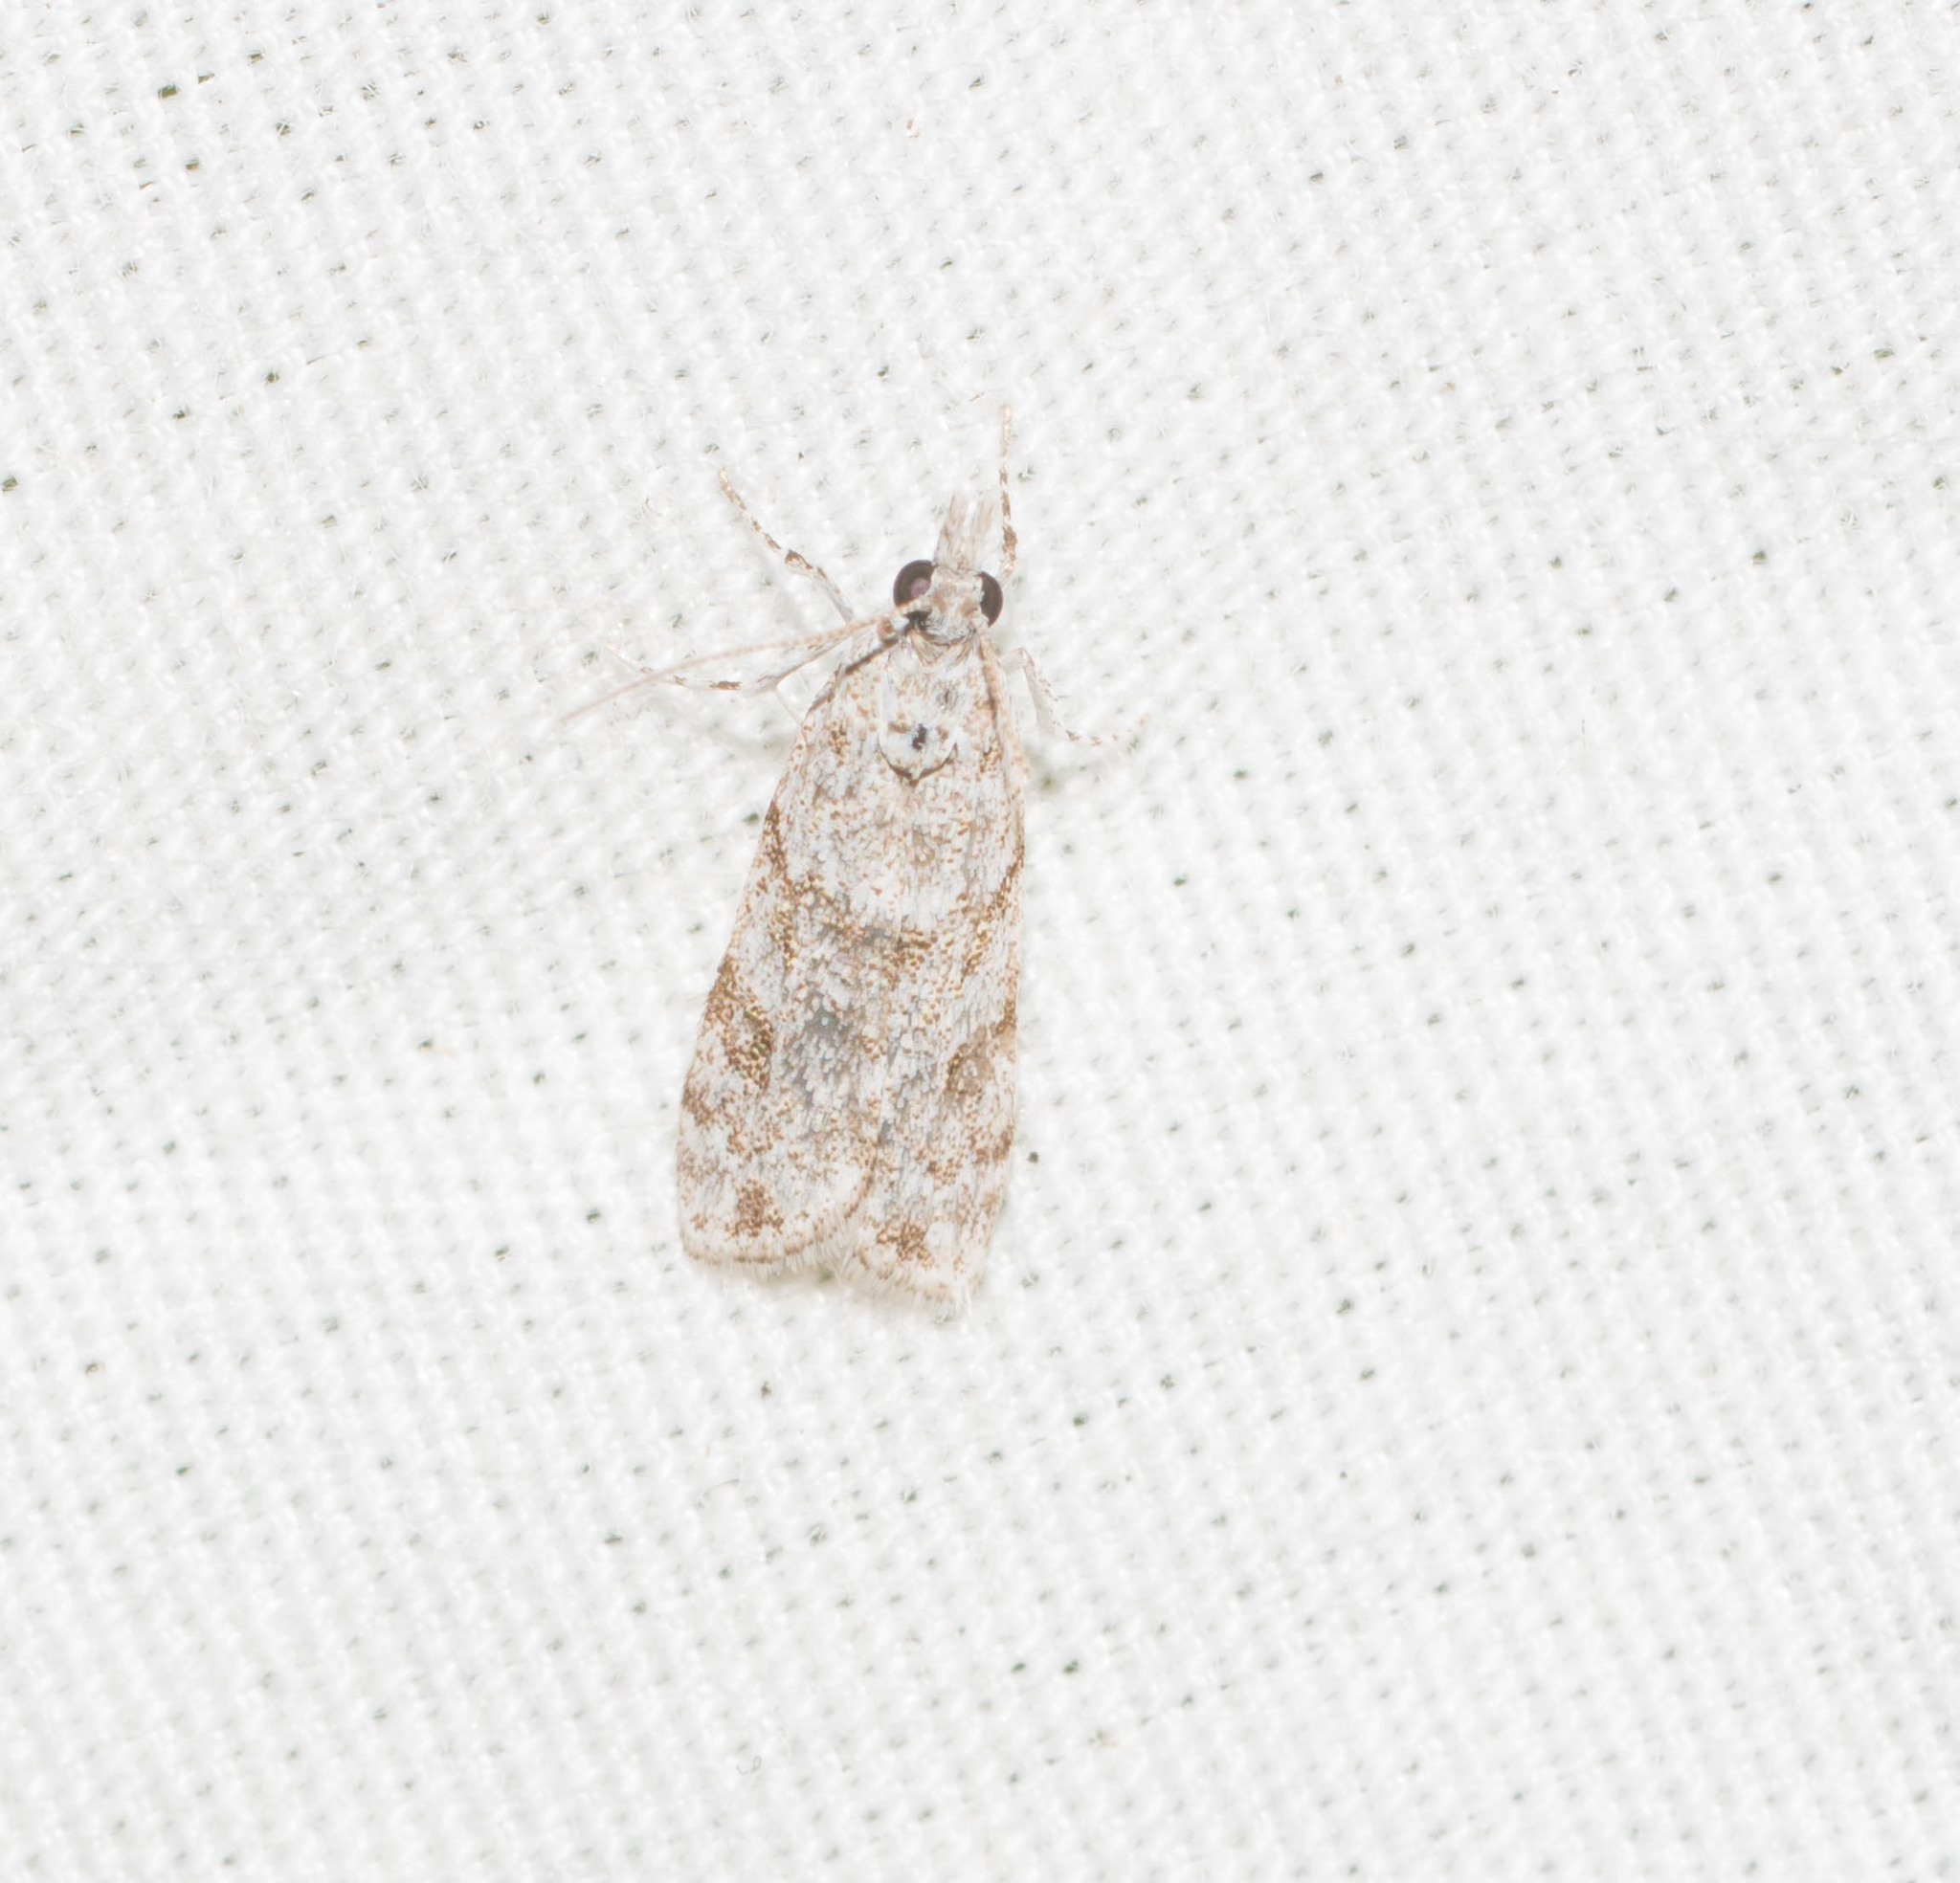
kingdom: Animalia
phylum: Arthropoda
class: Insecta
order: Lepidoptera
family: Crambidae
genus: Eudonia
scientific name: Eudonia geraea
